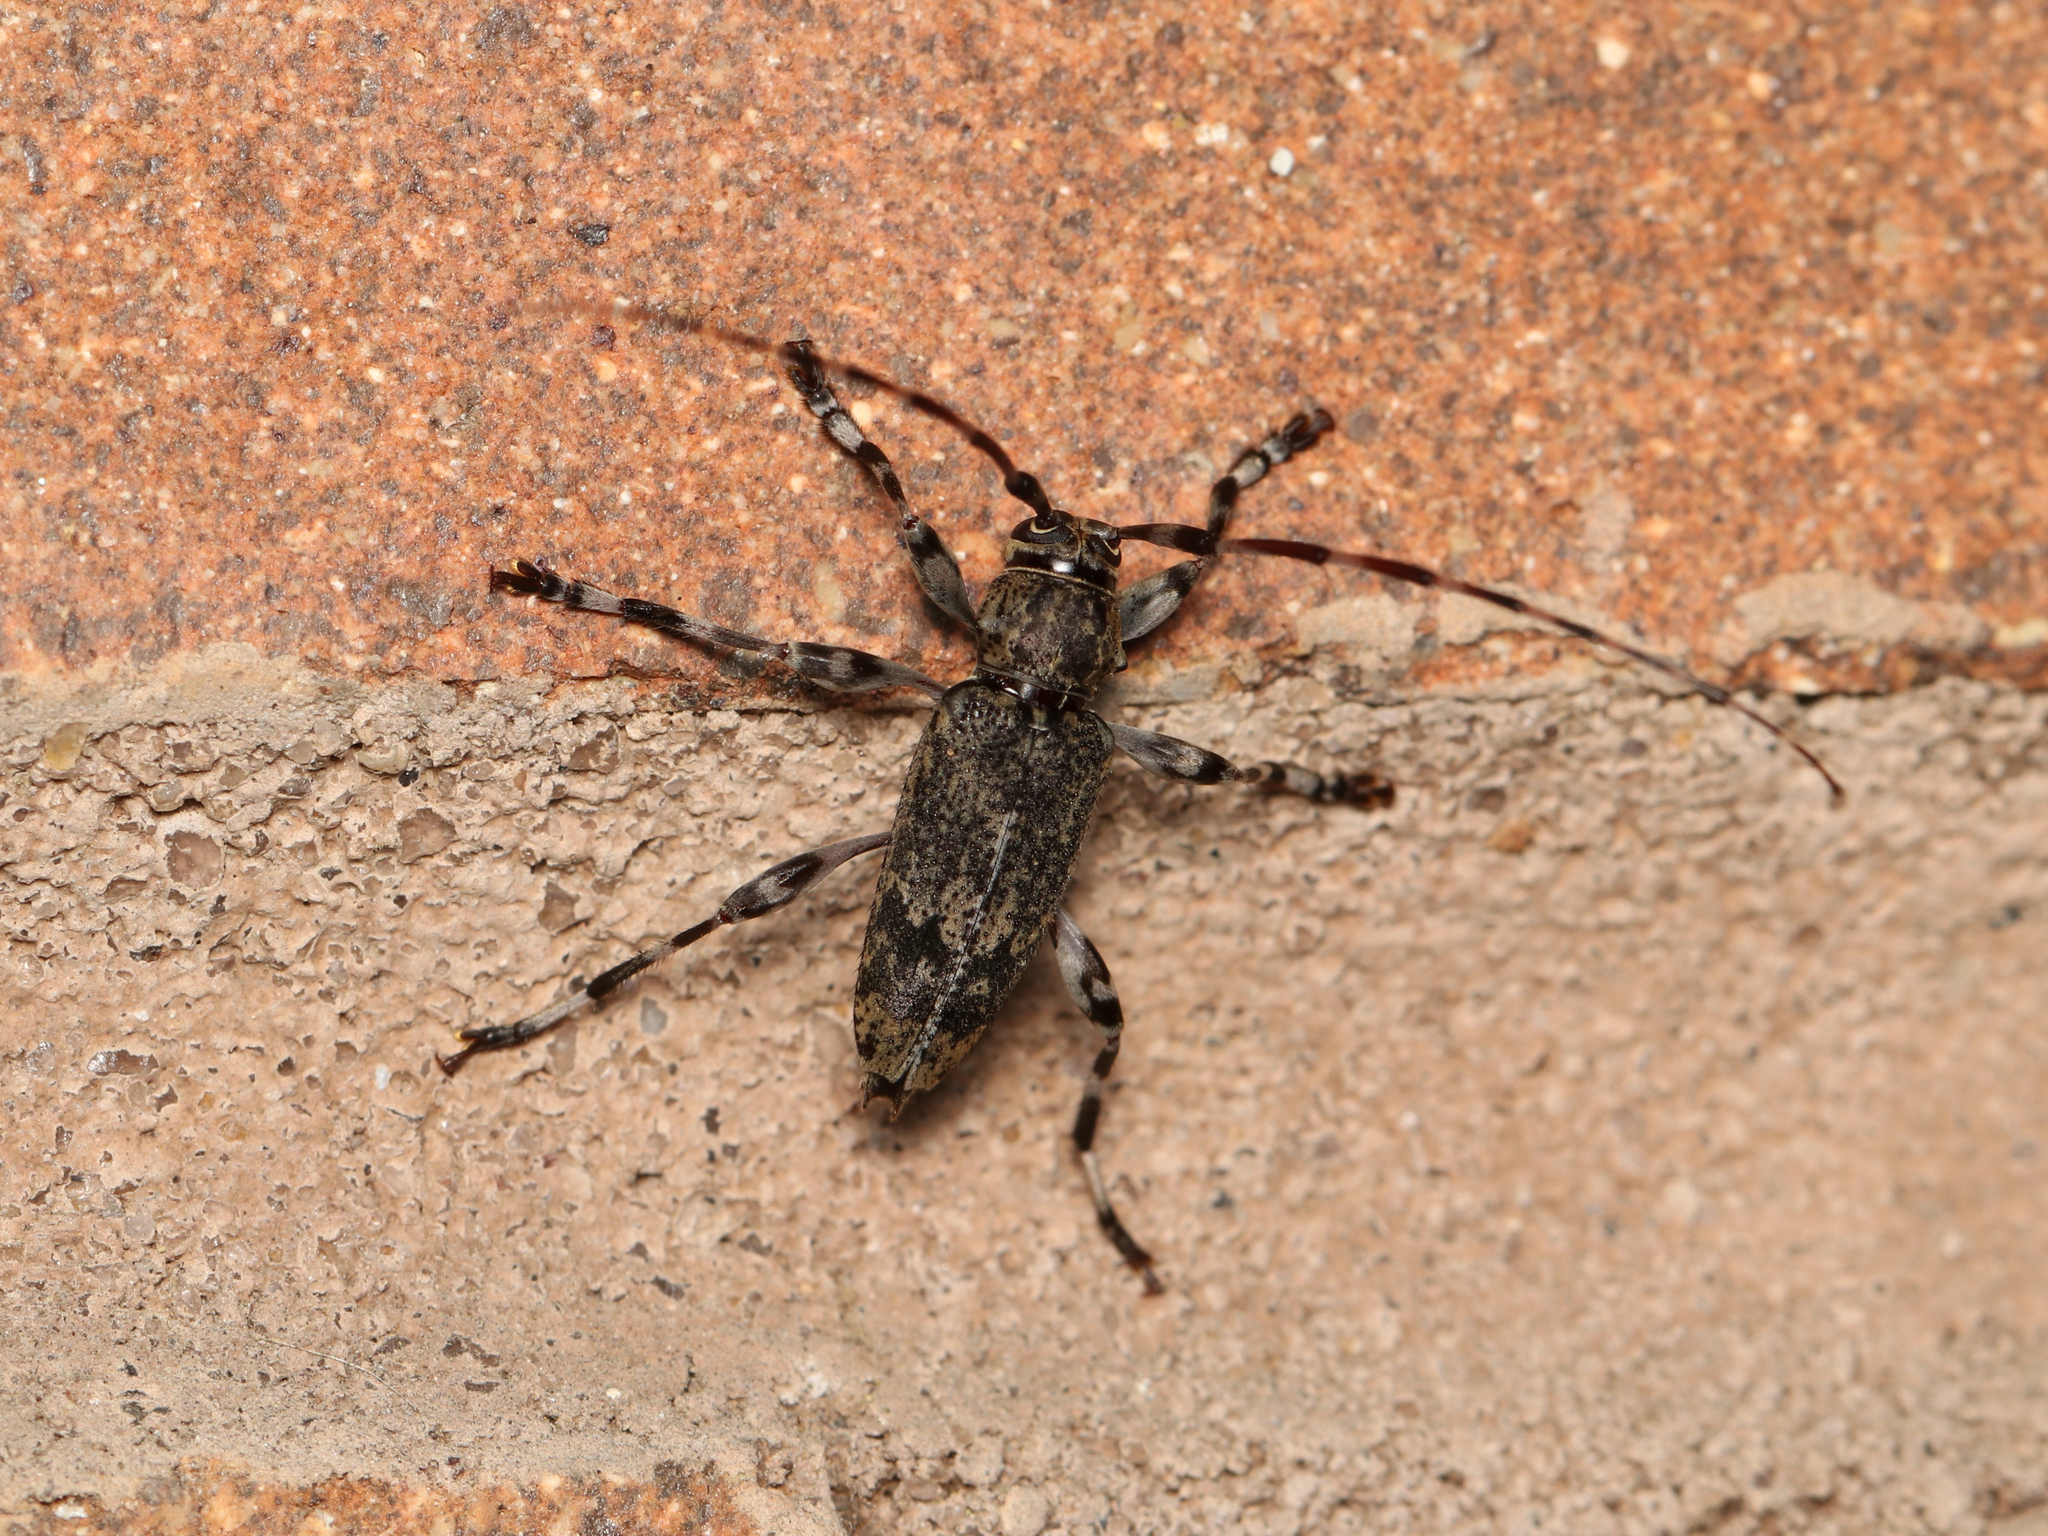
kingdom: Animalia
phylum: Arthropoda
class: Insecta
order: Coleoptera
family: Cerambycidae
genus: Graphisurus
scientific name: Graphisurus fasciatus
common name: Banded graphisurus
